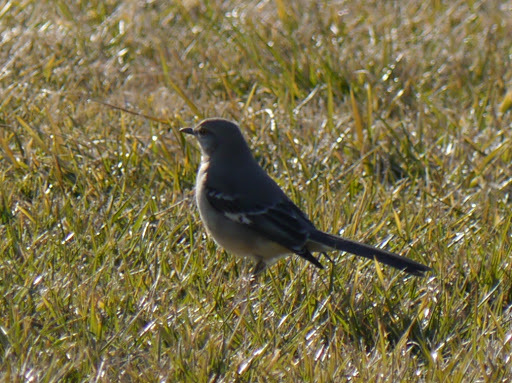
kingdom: Animalia
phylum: Chordata
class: Aves
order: Passeriformes
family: Mimidae
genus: Mimus
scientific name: Mimus polyglottos
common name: Northern mockingbird
